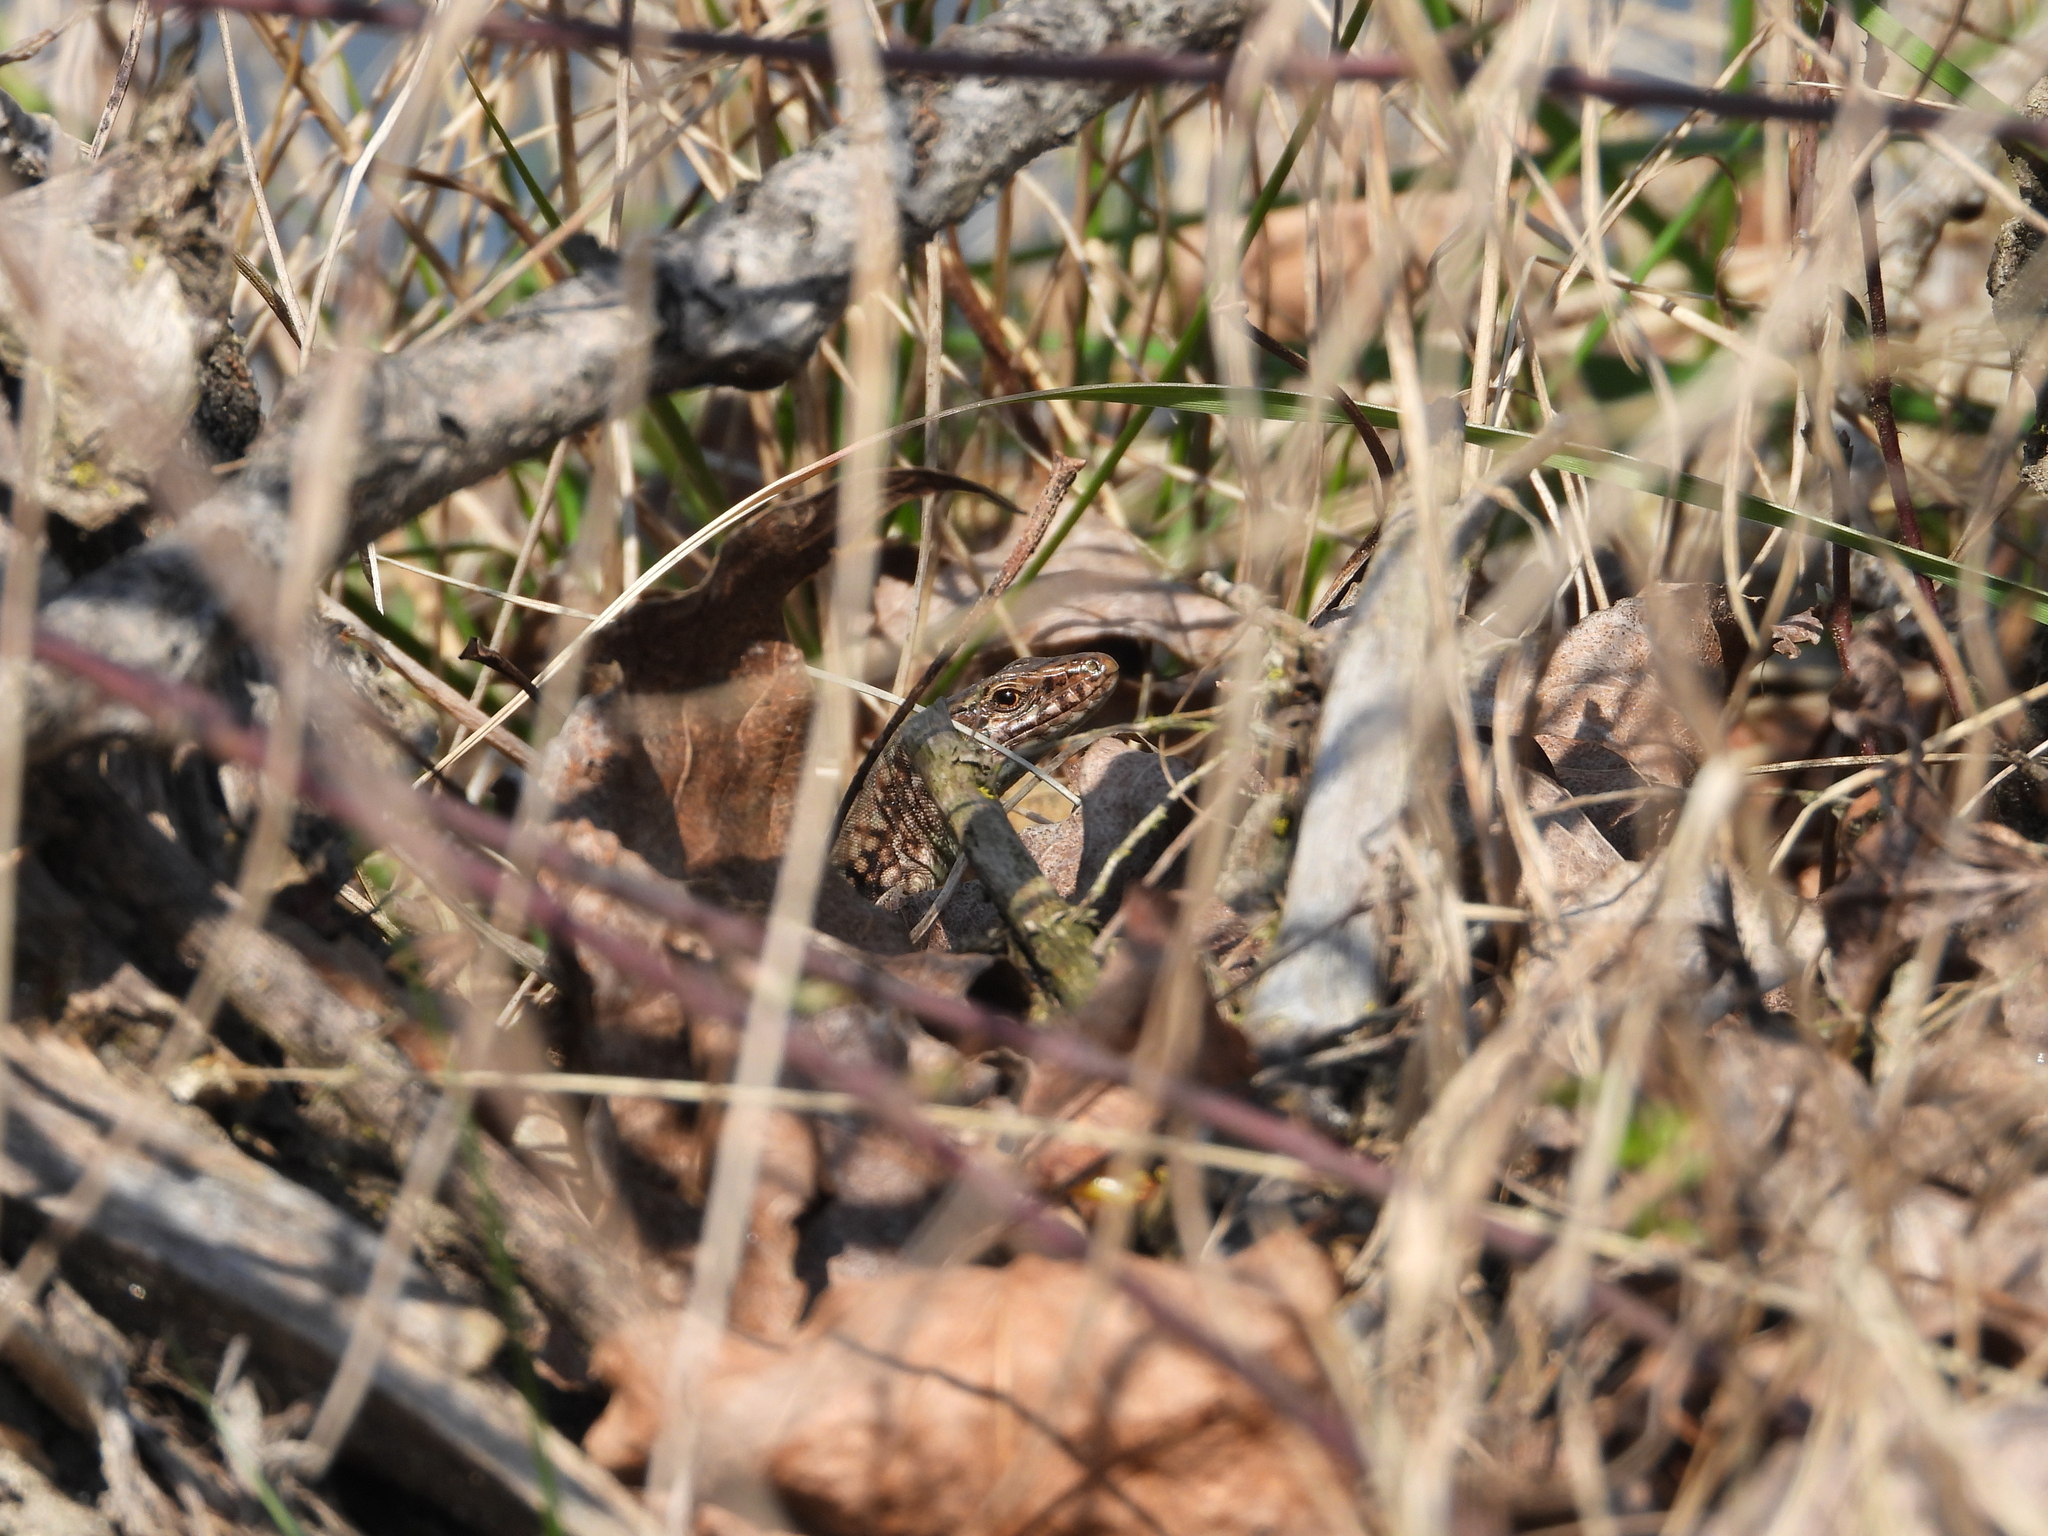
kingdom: Animalia
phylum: Chordata
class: Squamata
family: Lacertidae
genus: Podarcis
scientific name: Podarcis muralis
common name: Common wall lizard
